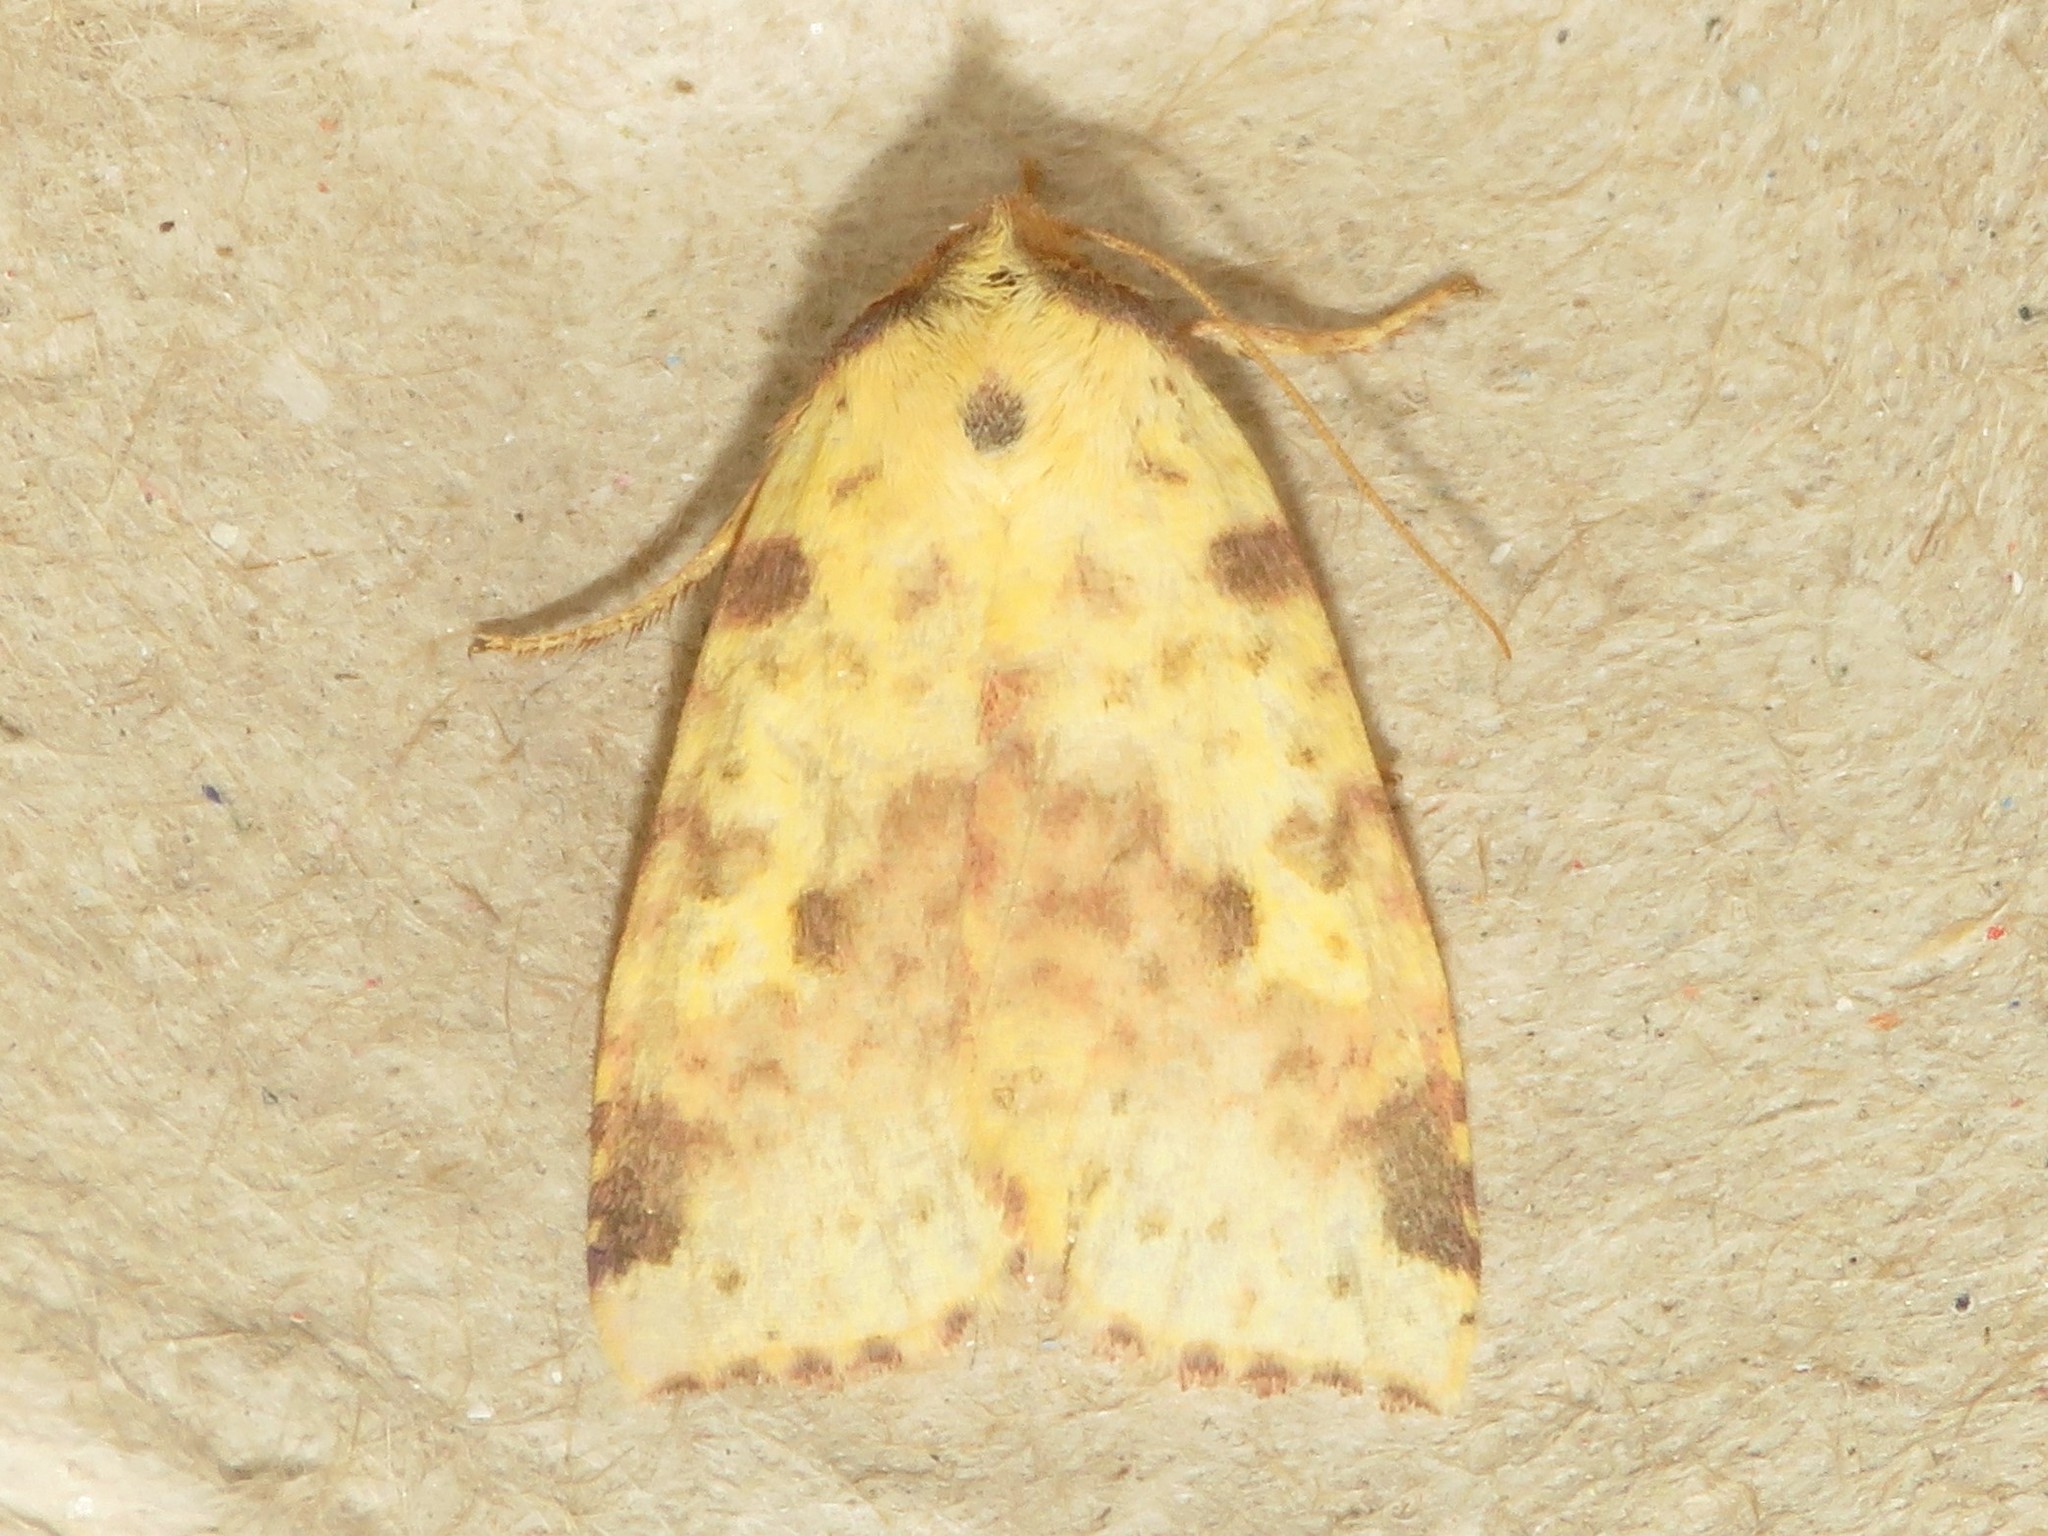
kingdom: Animalia
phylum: Arthropoda
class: Insecta
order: Lepidoptera
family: Noctuidae
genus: Xanthia
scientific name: Xanthia tatago
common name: Pink-banded sallow
